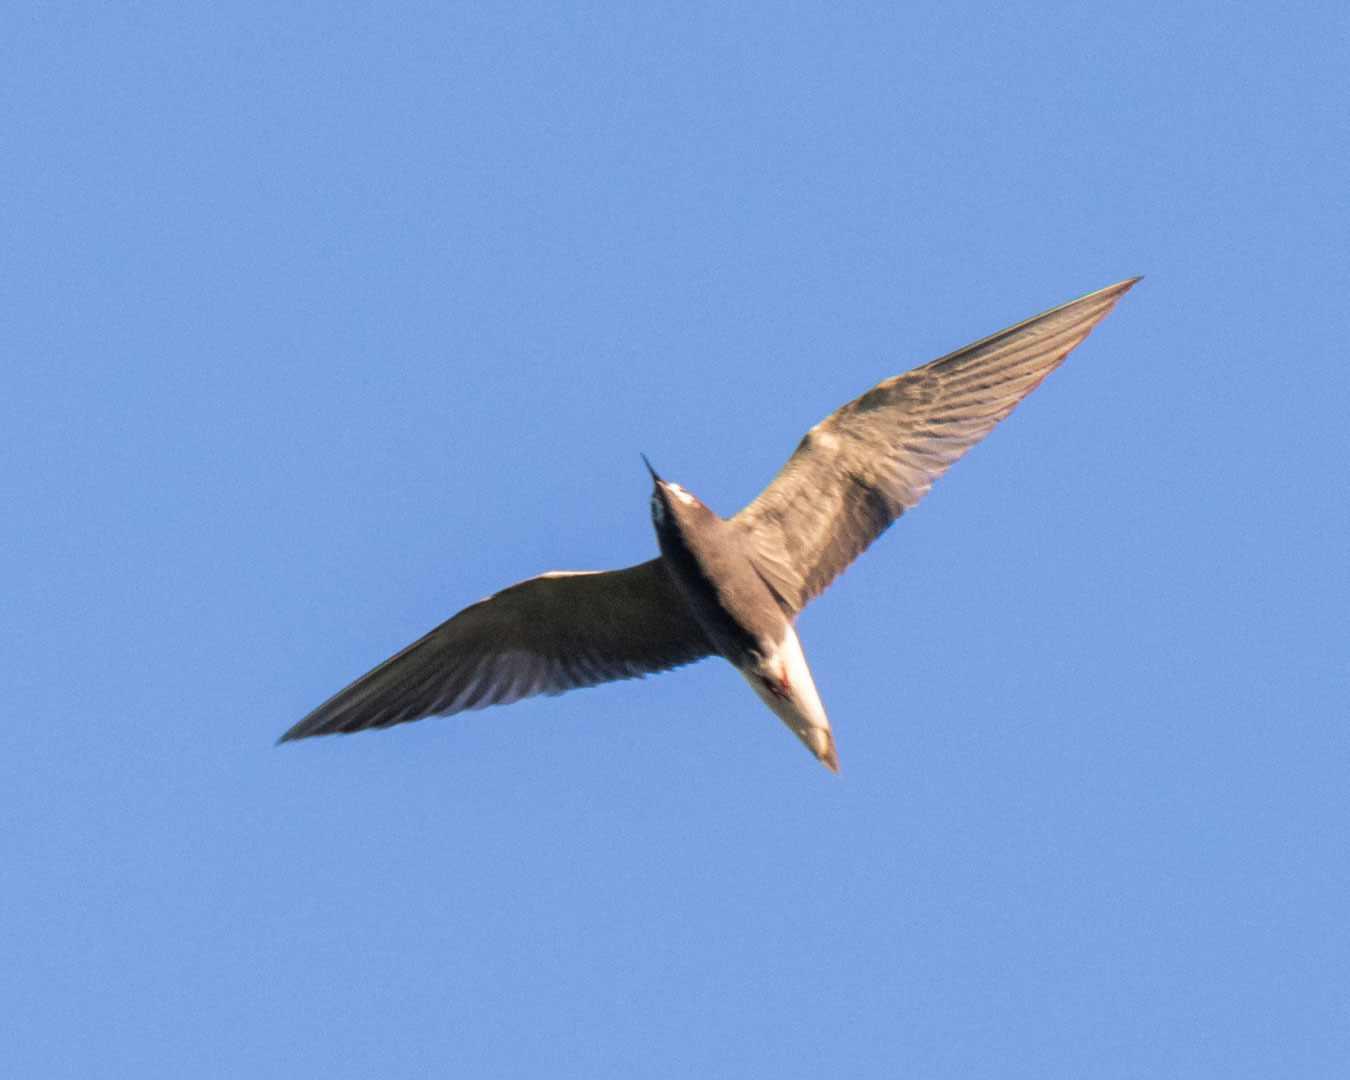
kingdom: Animalia
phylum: Chordata
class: Aves
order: Charadriiformes
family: Laridae
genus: Chlidonias
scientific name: Chlidonias niger
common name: Black tern
